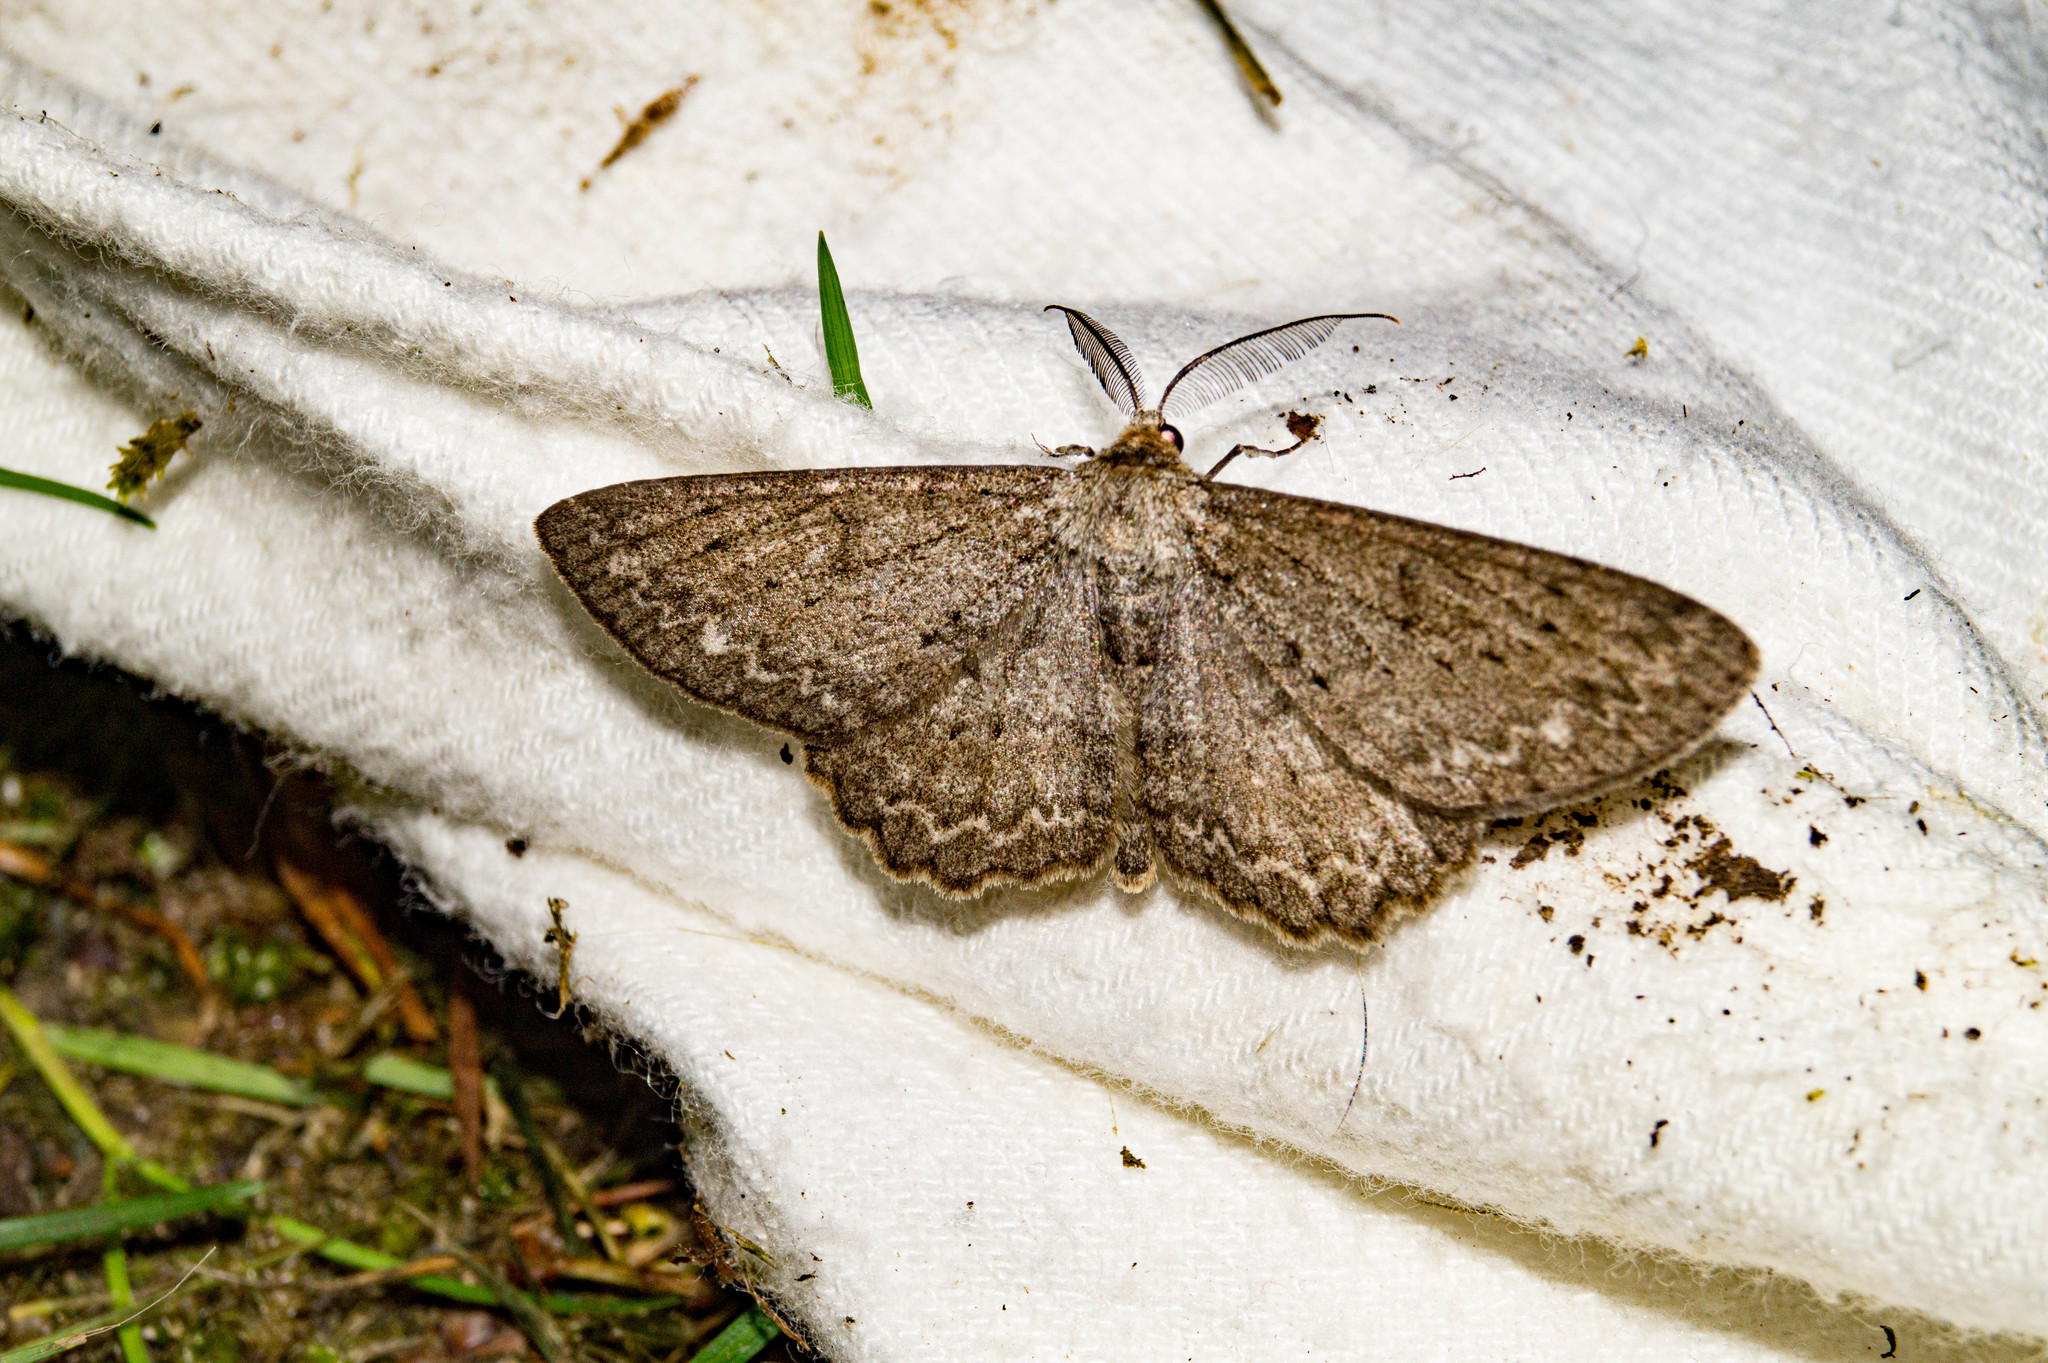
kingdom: Animalia
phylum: Arthropoda
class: Insecta
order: Lepidoptera
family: Geometridae
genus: Hypomecis
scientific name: Hypomecis punctinalis
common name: Pale oak beauty
